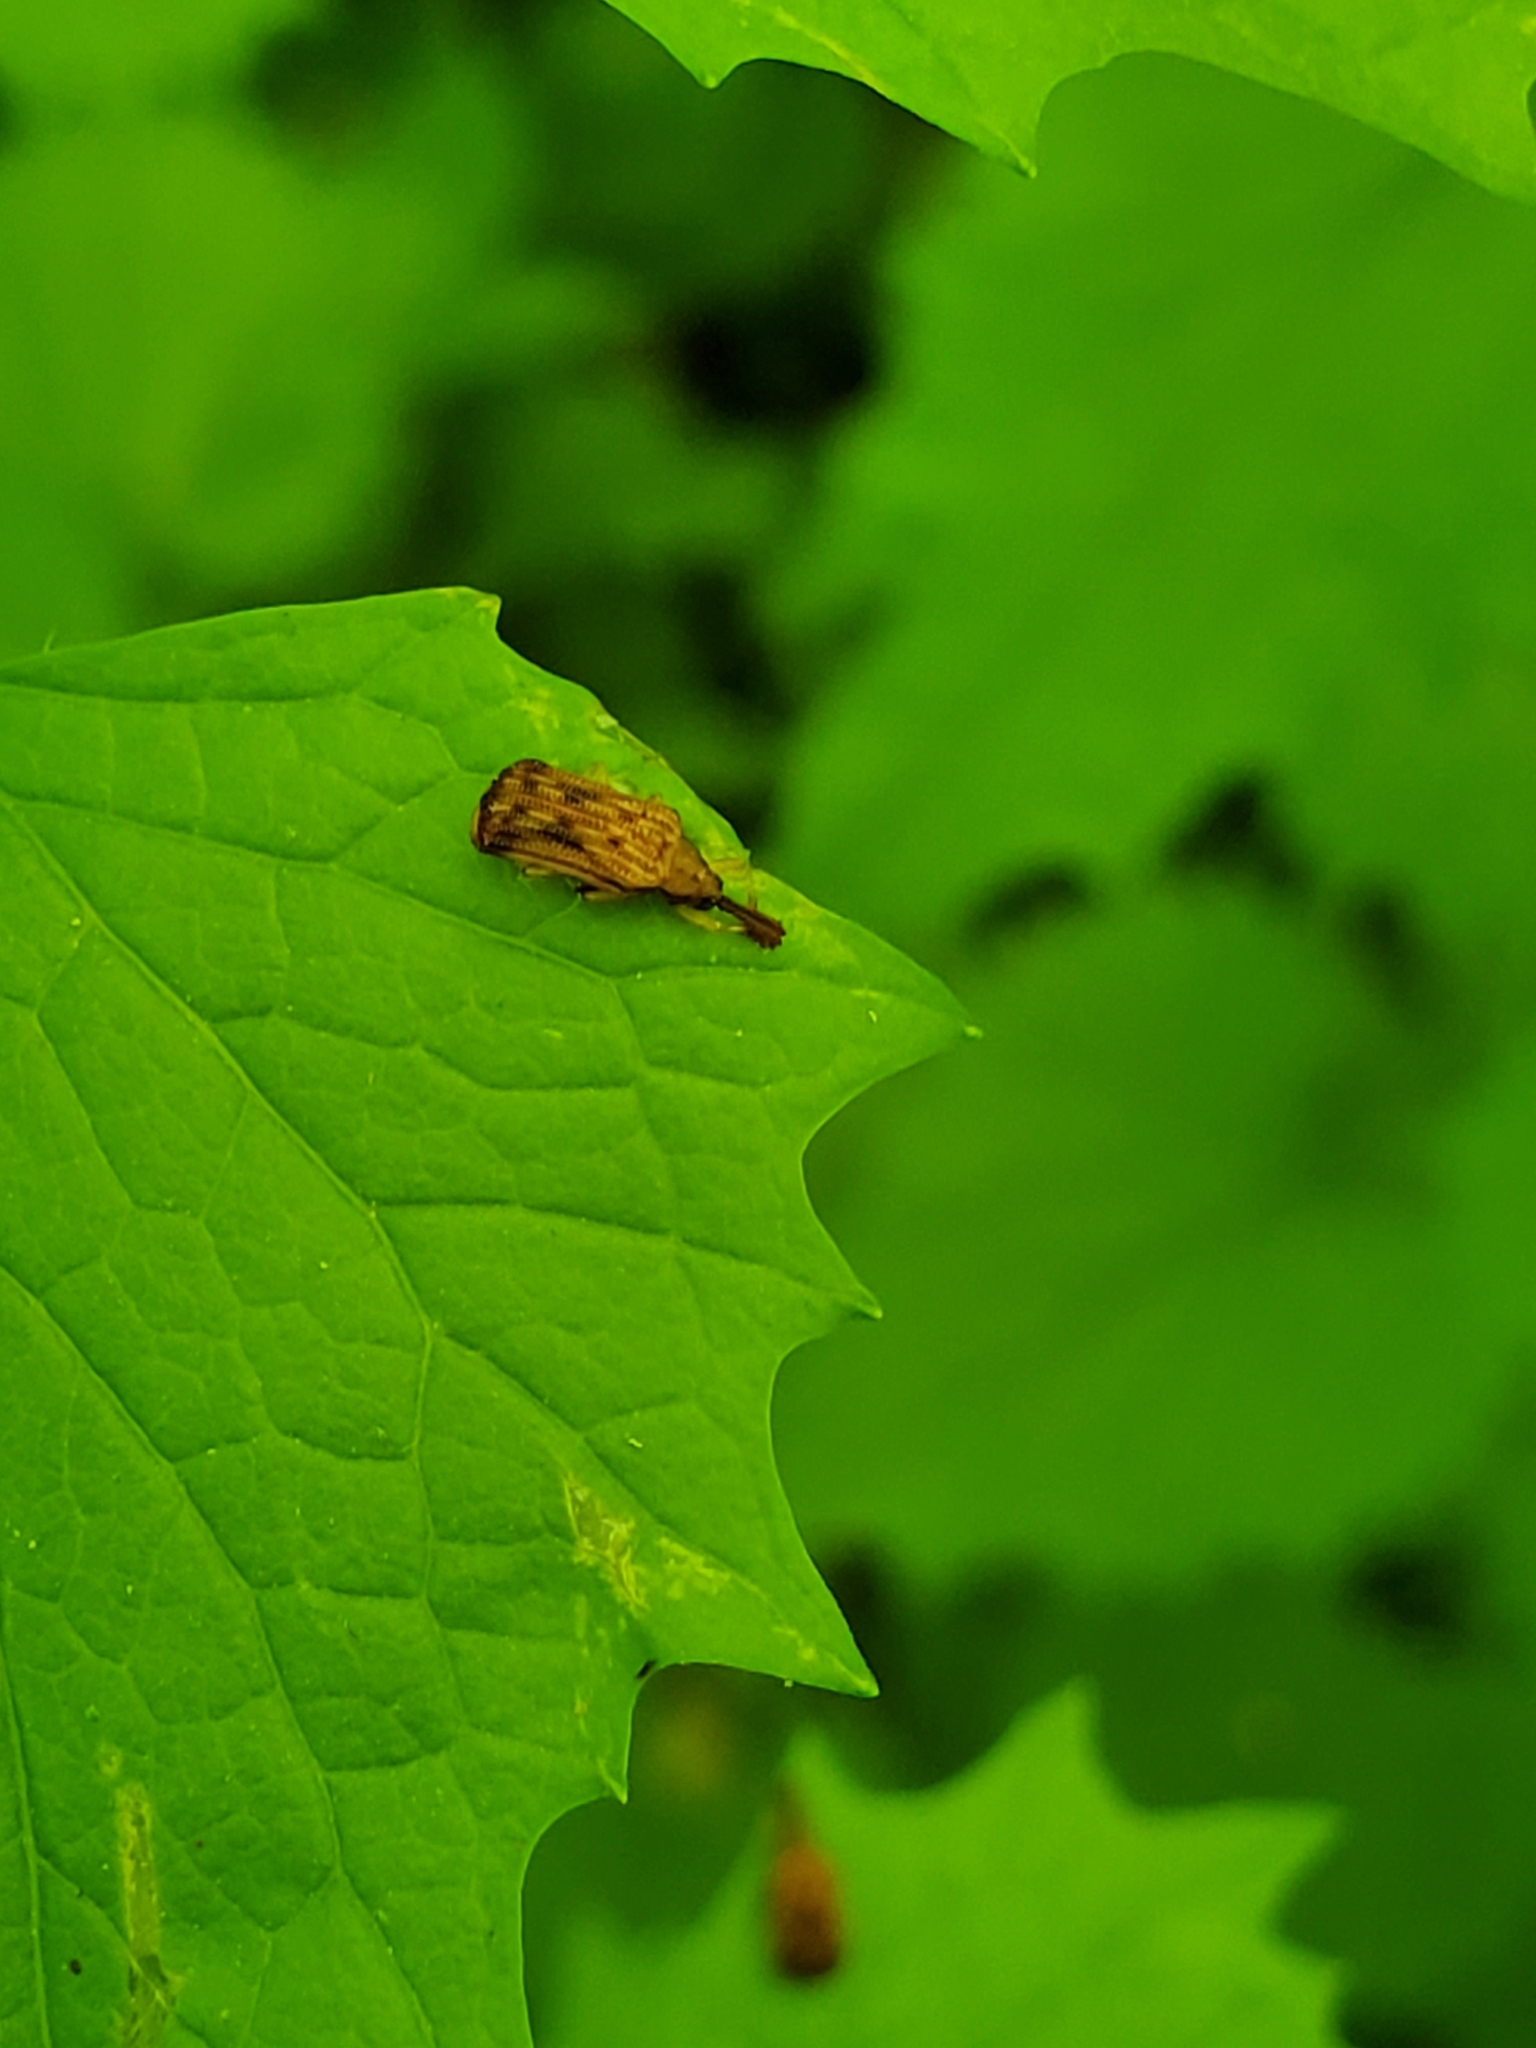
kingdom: Animalia
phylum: Arthropoda
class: Insecta
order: Coleoptera
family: Chrysomelidae
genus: Baliosus
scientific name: Baliosus nervosus
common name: Basswood leaf miner
